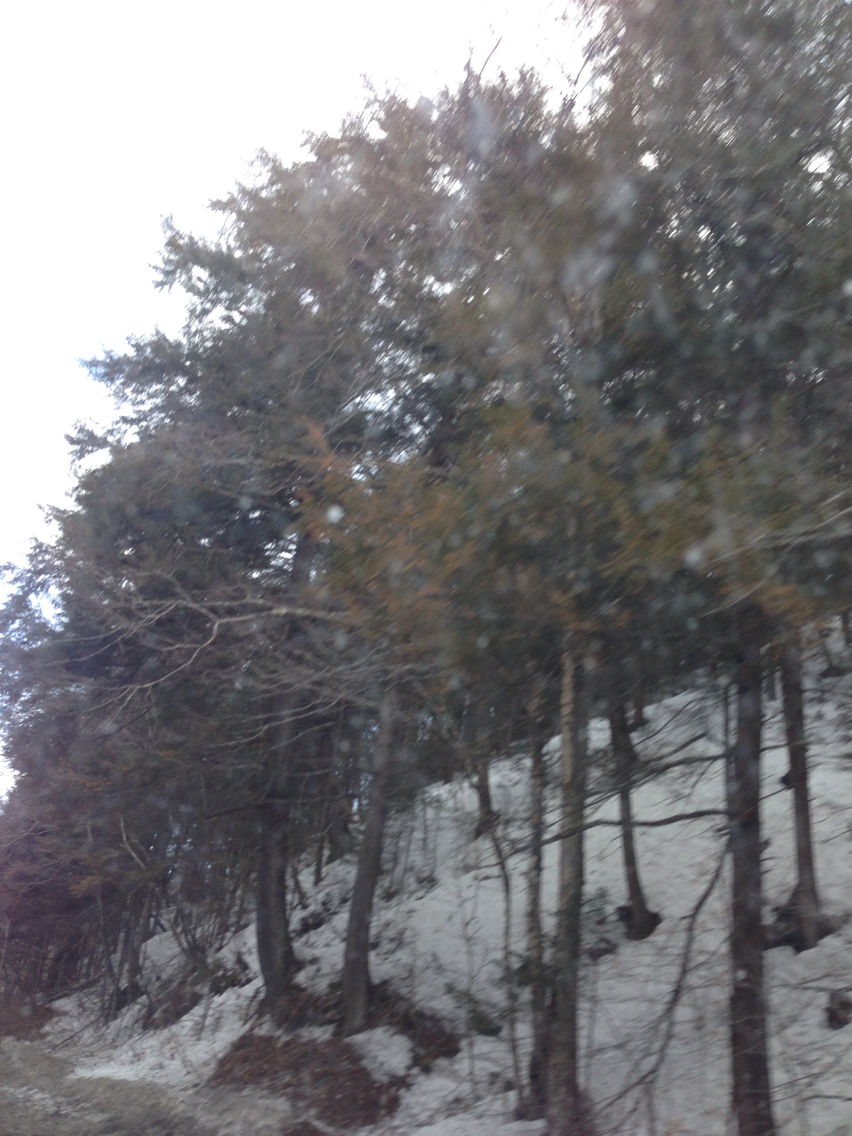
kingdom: Plantae
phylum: Tracheophyta
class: Pinopsida
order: Pinales
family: Pinaceae
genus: Tsuga
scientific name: Tsuga canadensis
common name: Eastern hemlock
